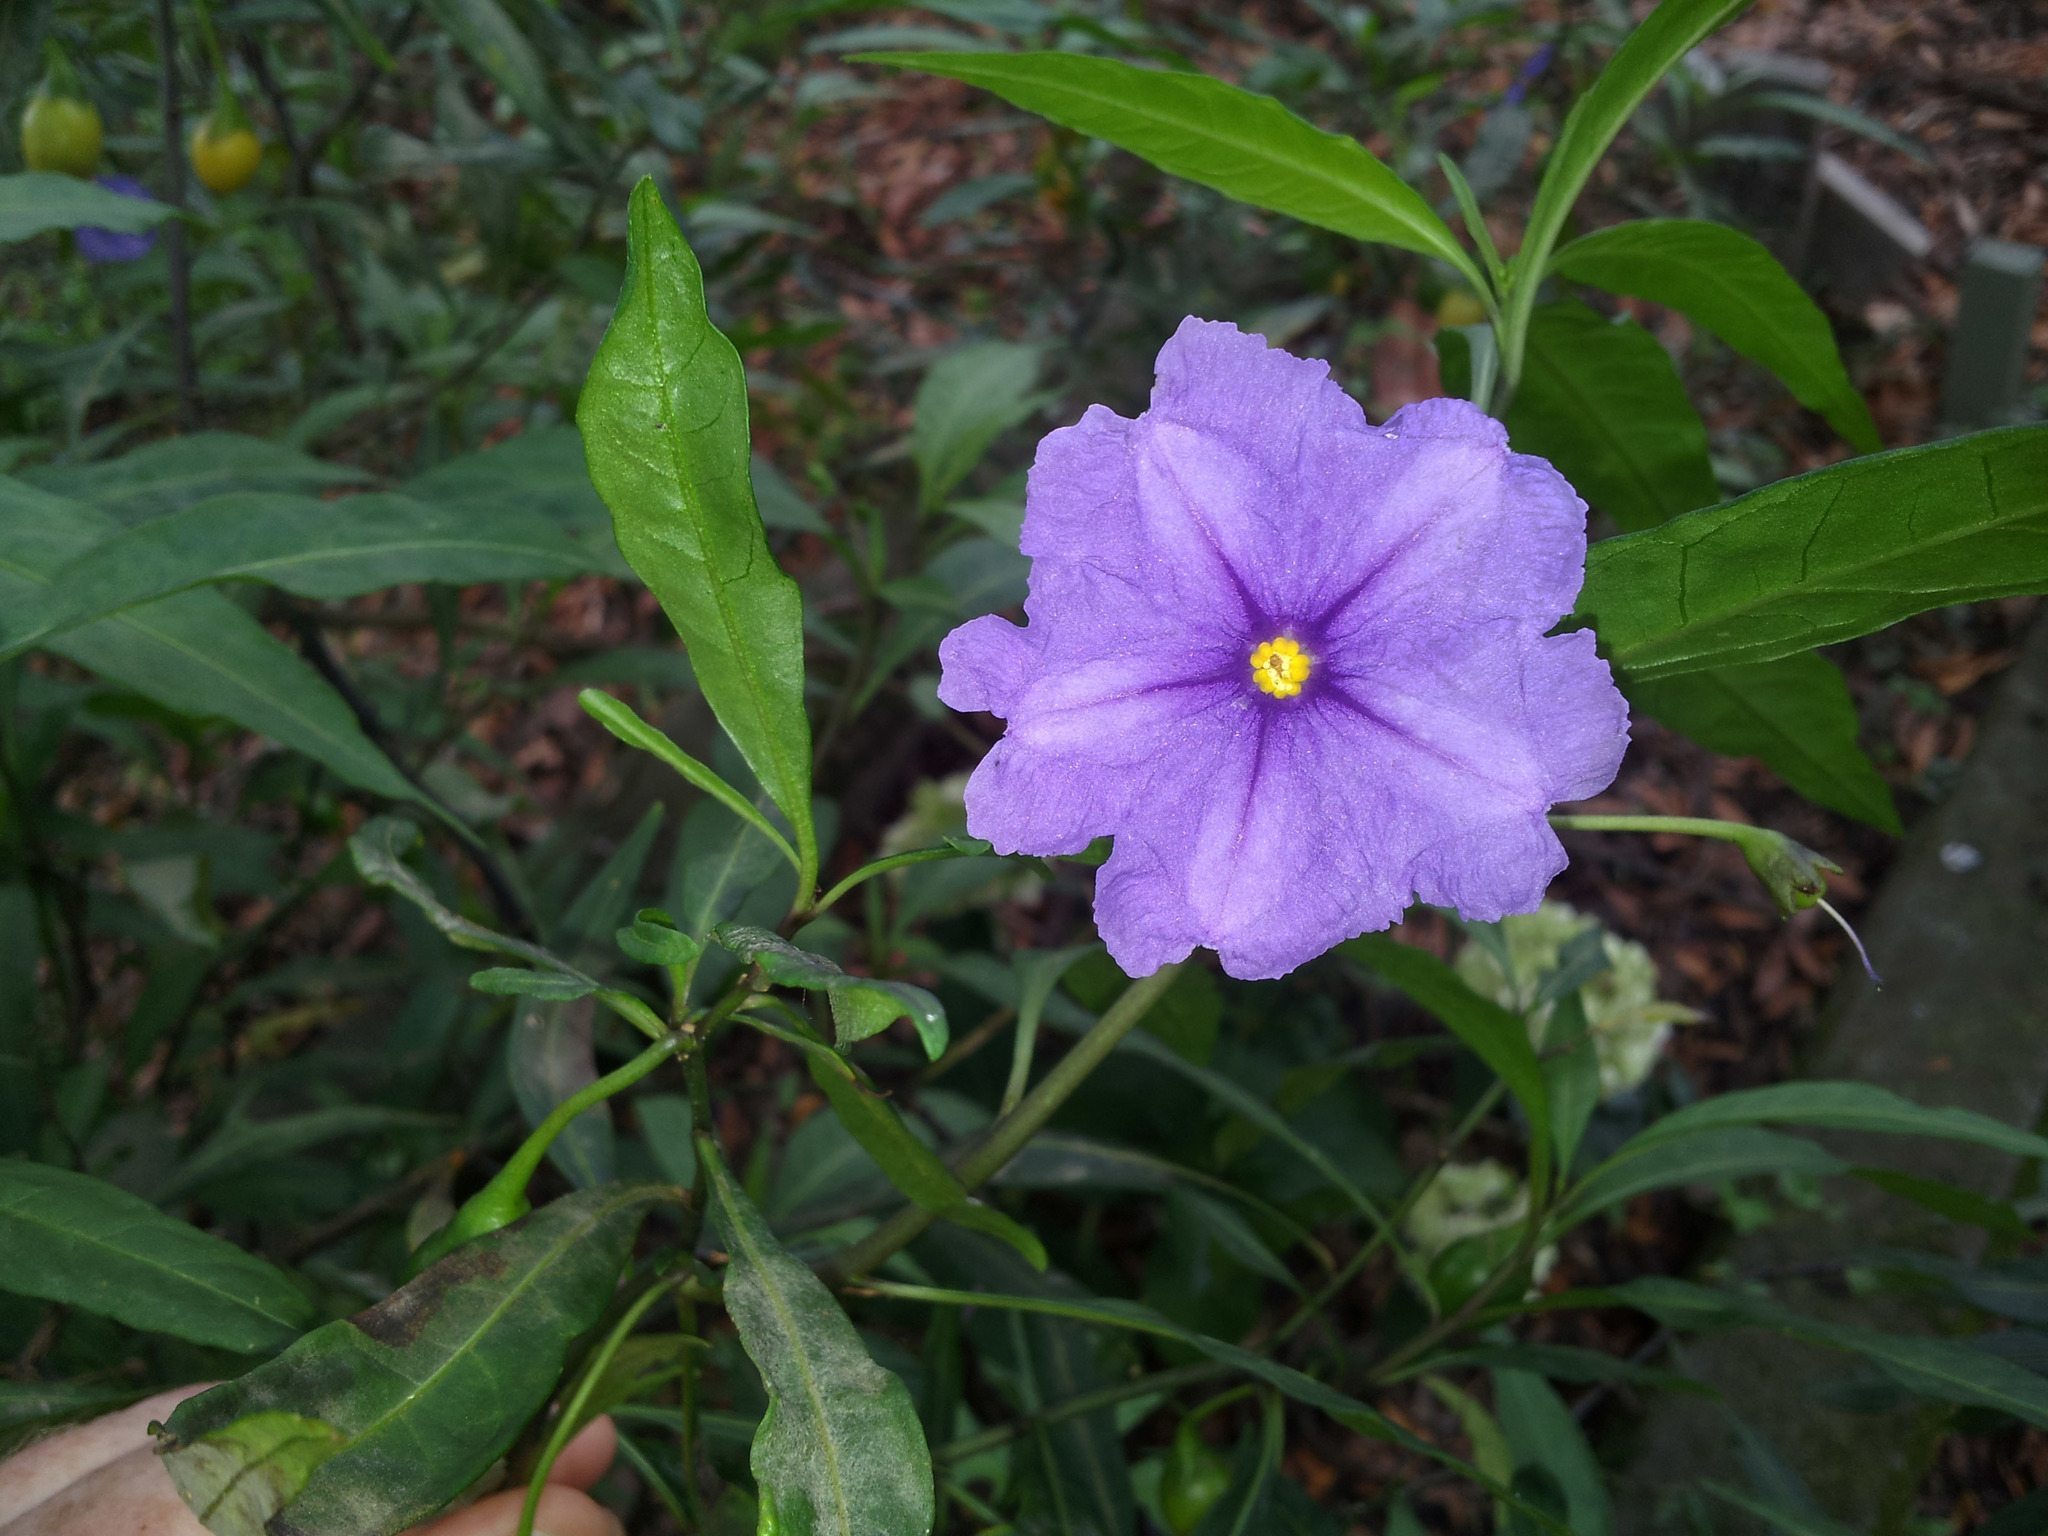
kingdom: Plantae
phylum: Tracheophyta
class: Magnoliopsida
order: Solanales
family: Solanaceae
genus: Solanum
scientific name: Solanum laciniatum
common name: Kangaroo-apple
